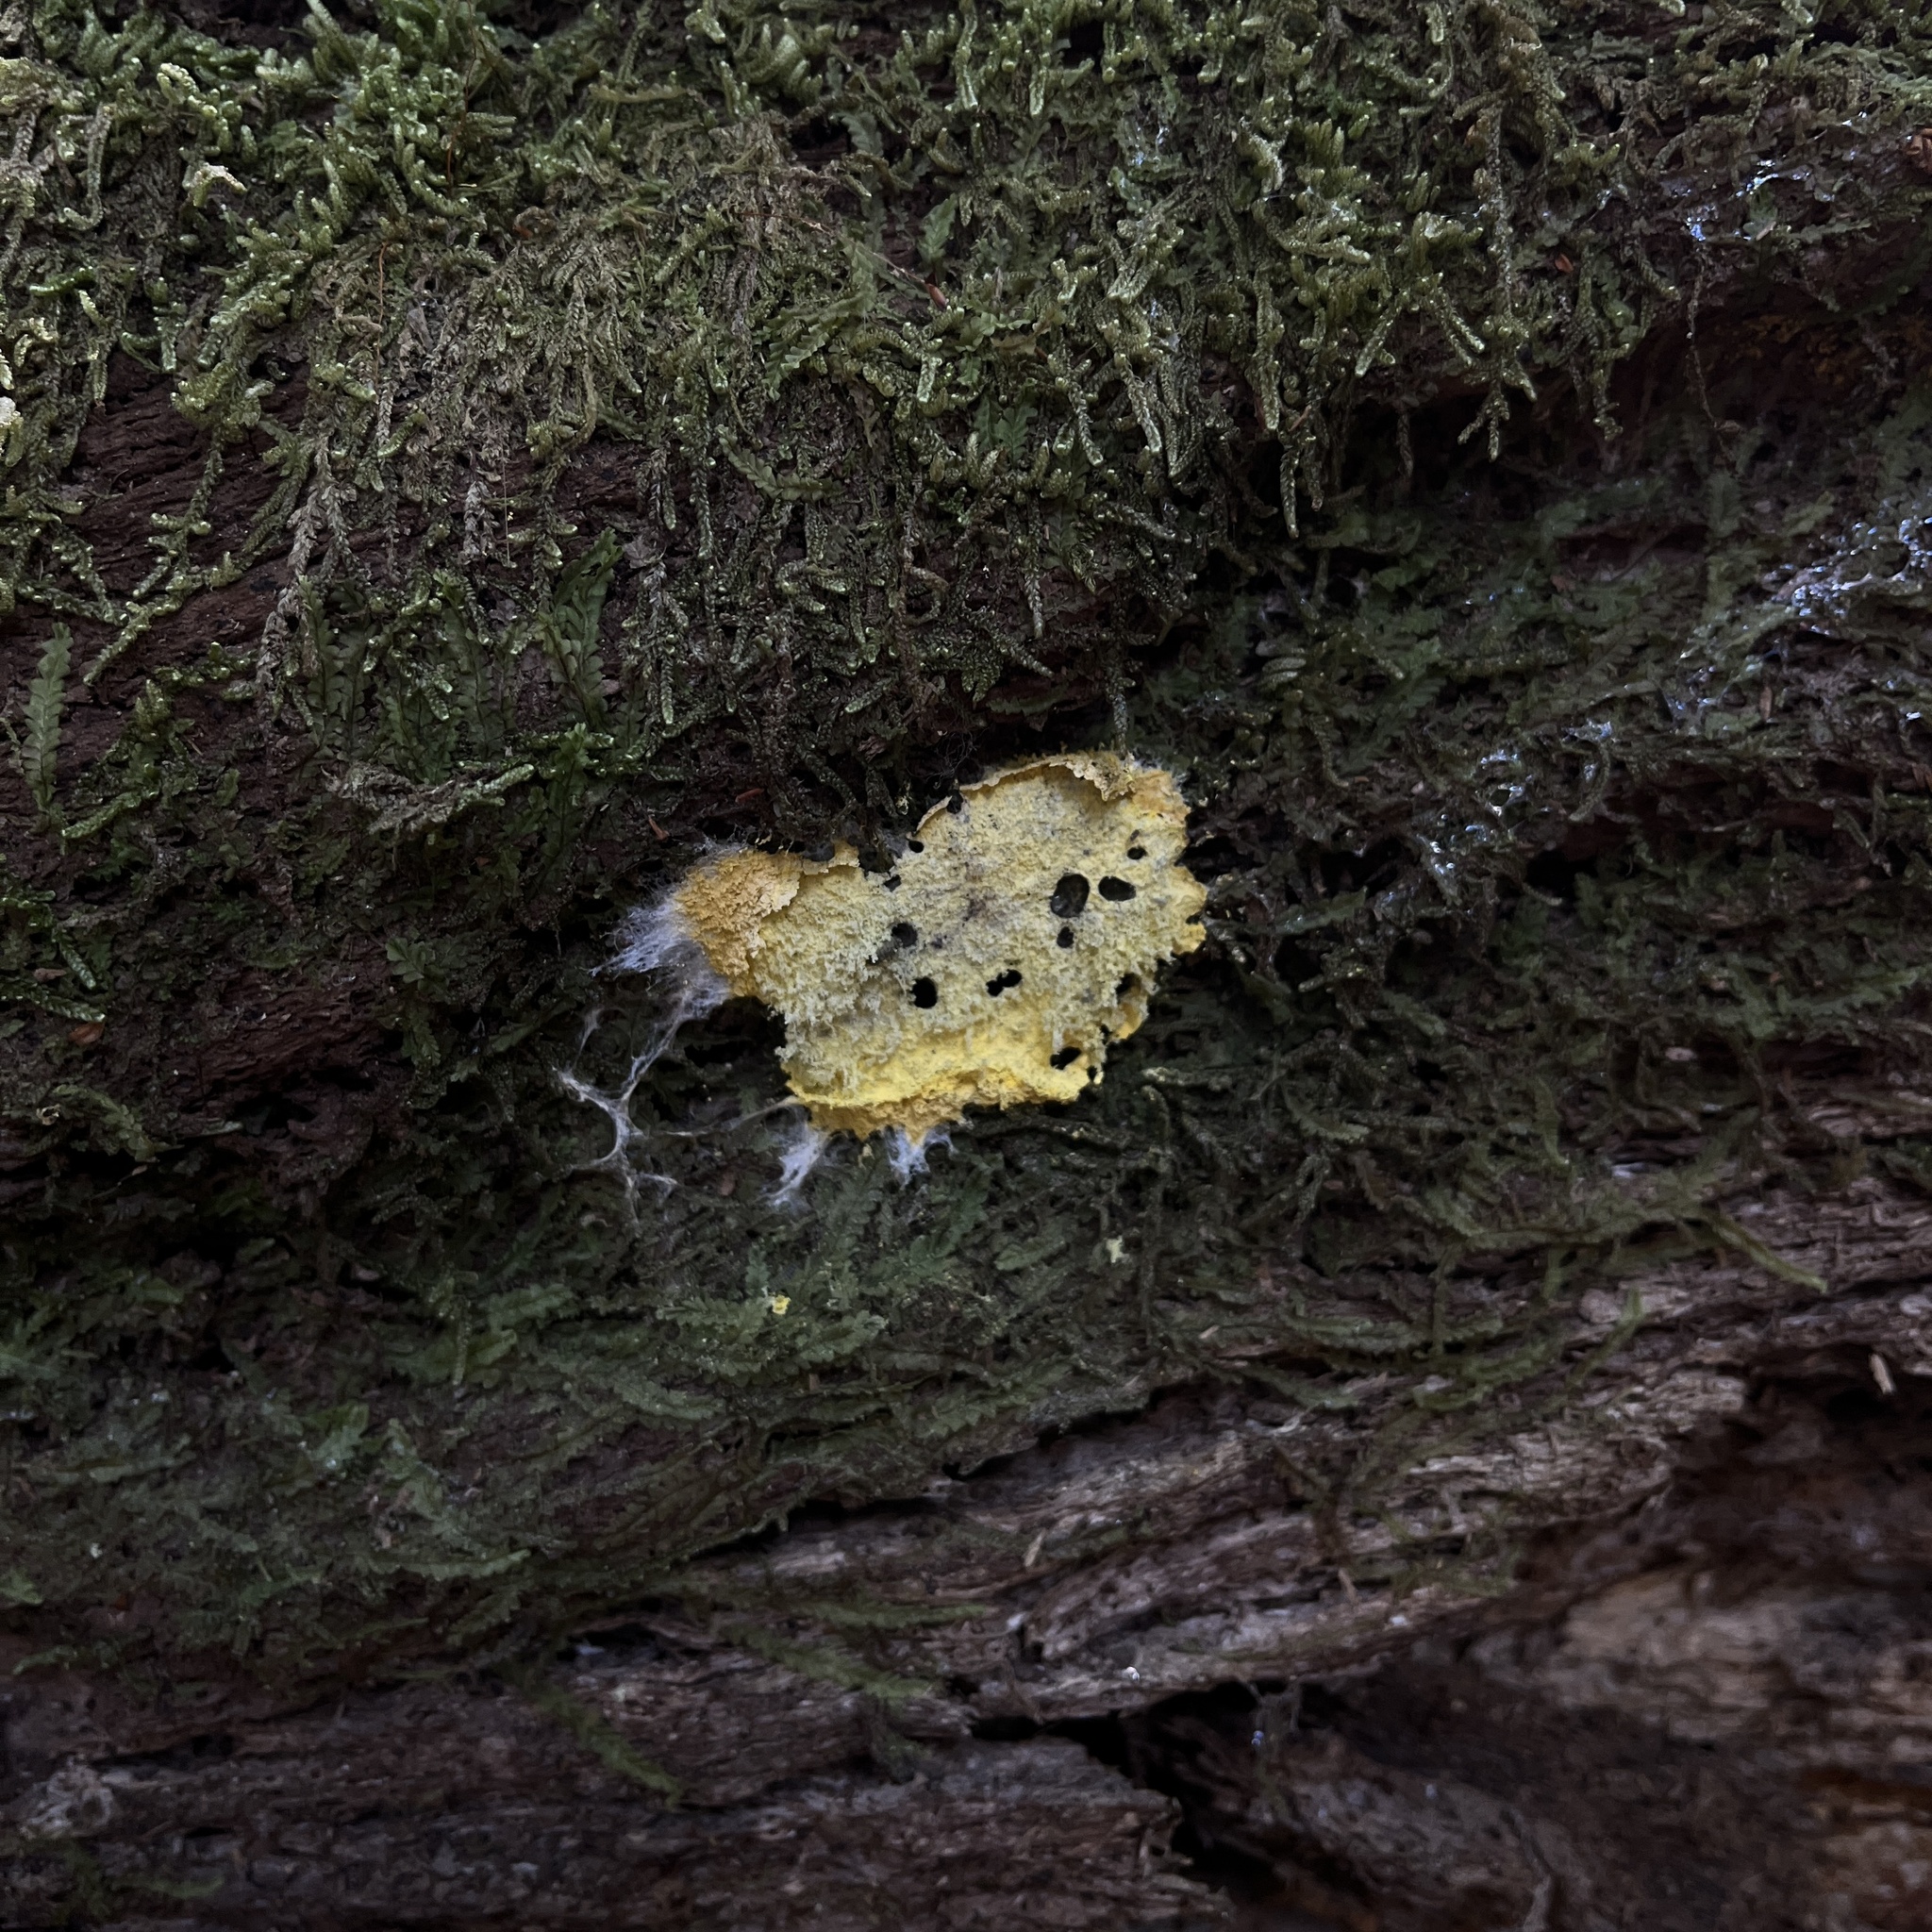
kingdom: Protozoa
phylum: Mycetozoa
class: Myxomycetes
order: Physarales
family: Physaraceae
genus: Fuligo
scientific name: Fuligo septica
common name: Dog vomit slime mold
